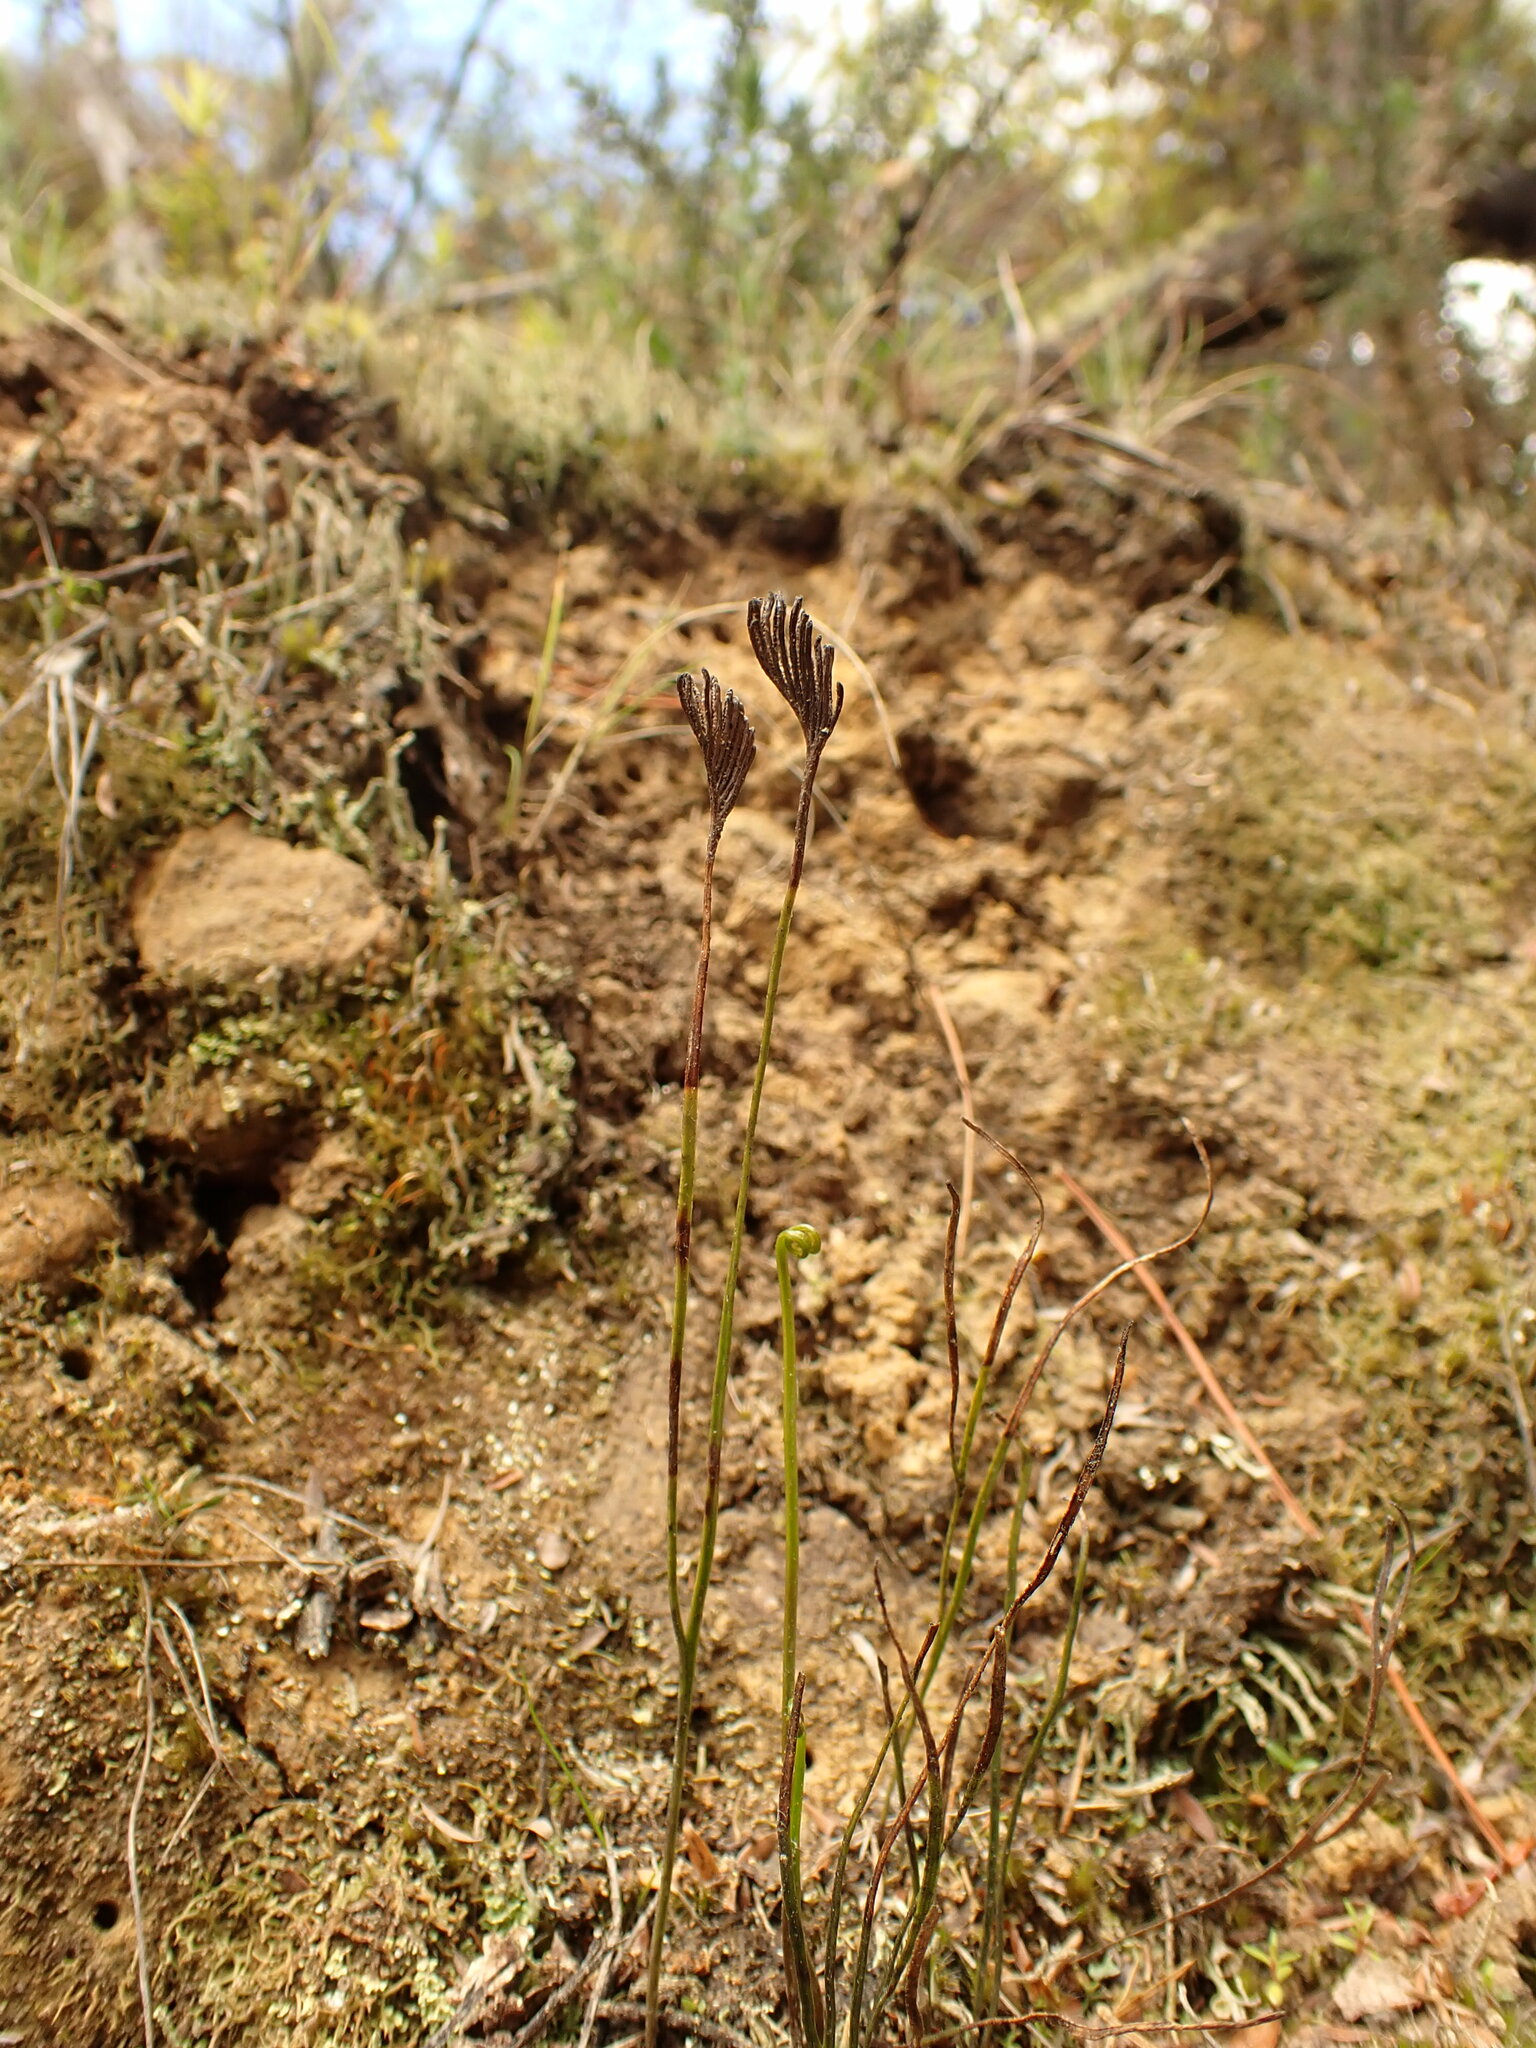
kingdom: Plantae
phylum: Tracheophyta
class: Polypodiopsida
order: Schizaeales
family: Schizaeaceae
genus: Schizaea
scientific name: Schizaea bifida
